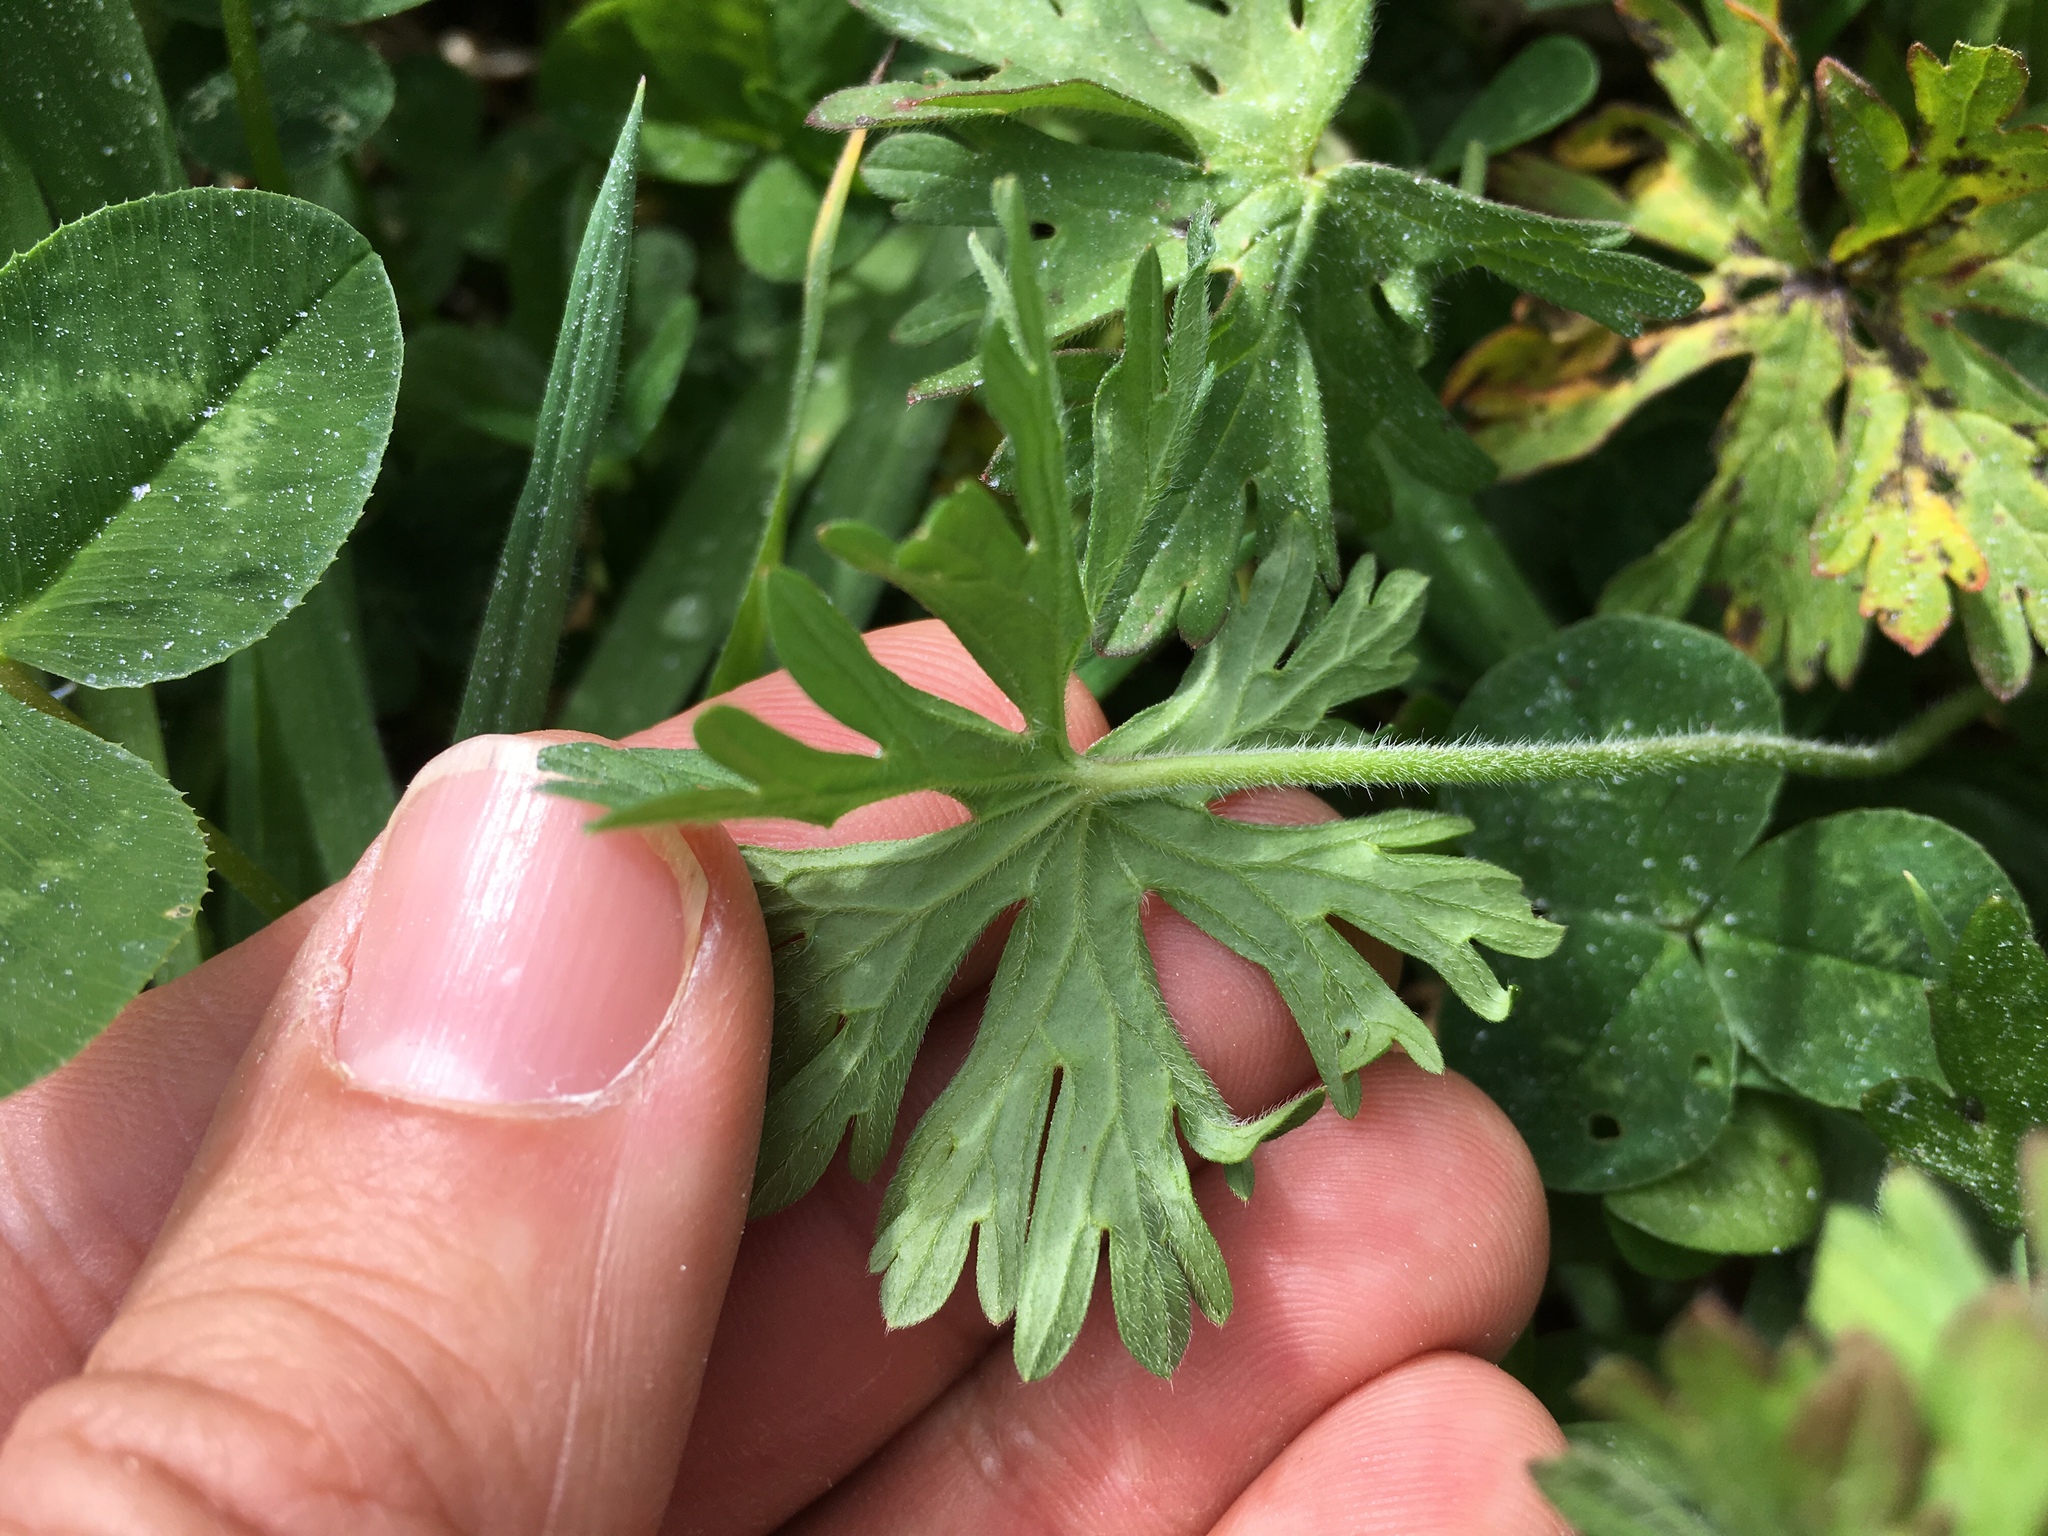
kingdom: Plantae
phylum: Tracheophyta
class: Magnoliopsida
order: Geraniales
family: Geraniaceae
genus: Geranium
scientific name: Geranium dissectum
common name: Cut-leaved crane's-bill
